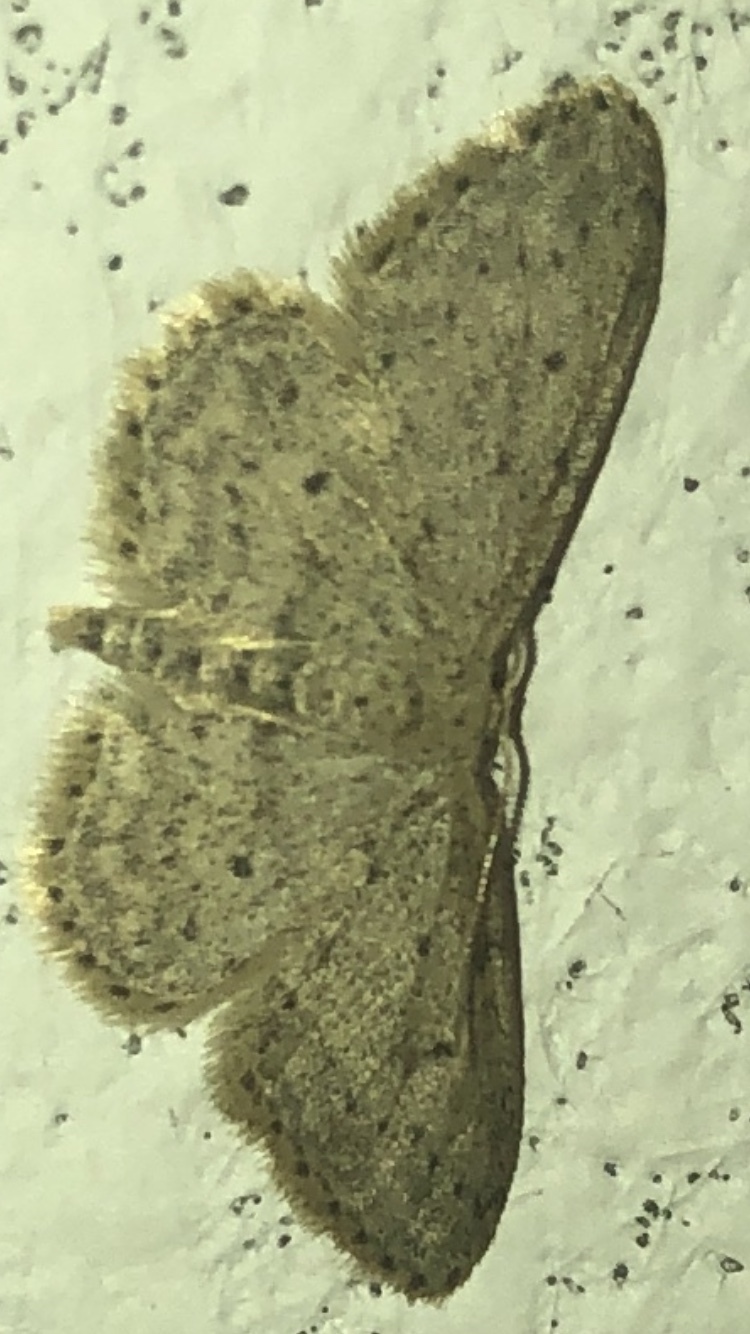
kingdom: Animalia
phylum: Arthropoda
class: Insecta
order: Lepidoptera
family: Geometridae
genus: Idaea
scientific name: Idaea seriata
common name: Small dusty wave
